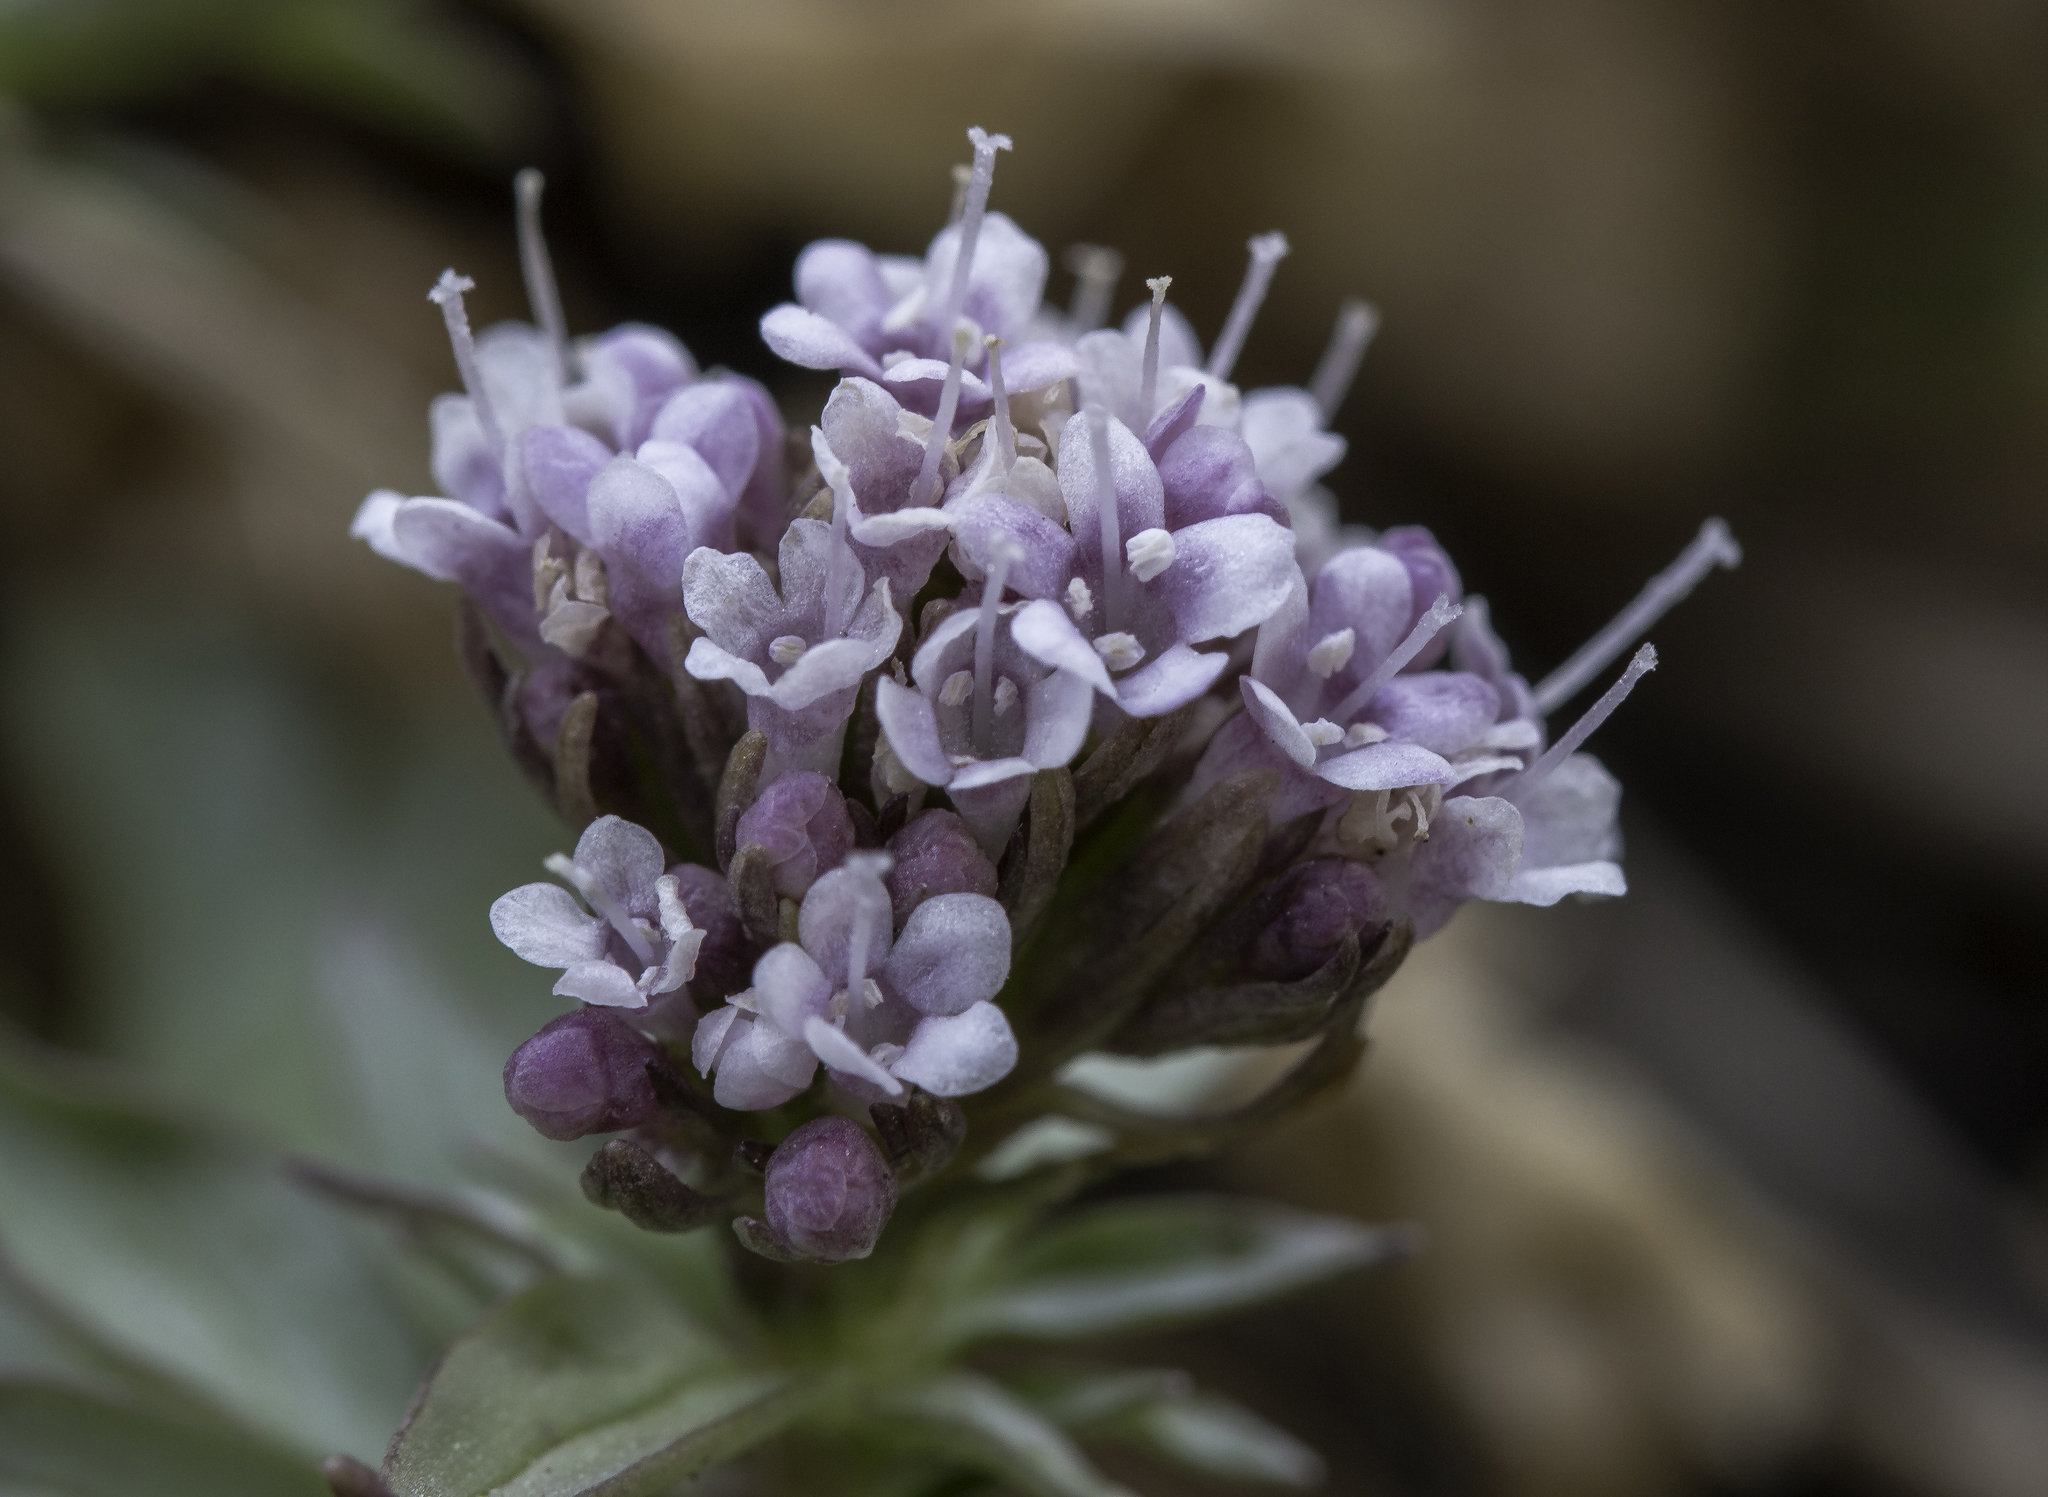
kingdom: Plantae
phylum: Tracheophyta
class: Magnoliopsida
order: Dipsacales
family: Caprifoliaceae
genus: Valeriana
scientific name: Valeriana arizonica
